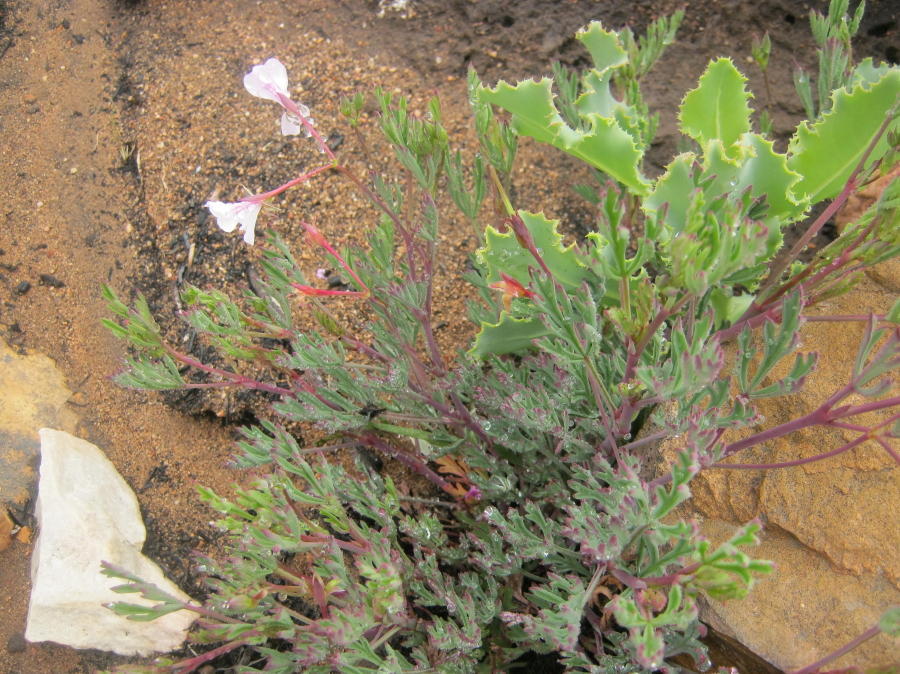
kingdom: Plantae
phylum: Tracheophyta
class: Magnoliopsida
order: Geraniales
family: Geraniaceae
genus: Pelargonium
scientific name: Pelargonium laevigatum
